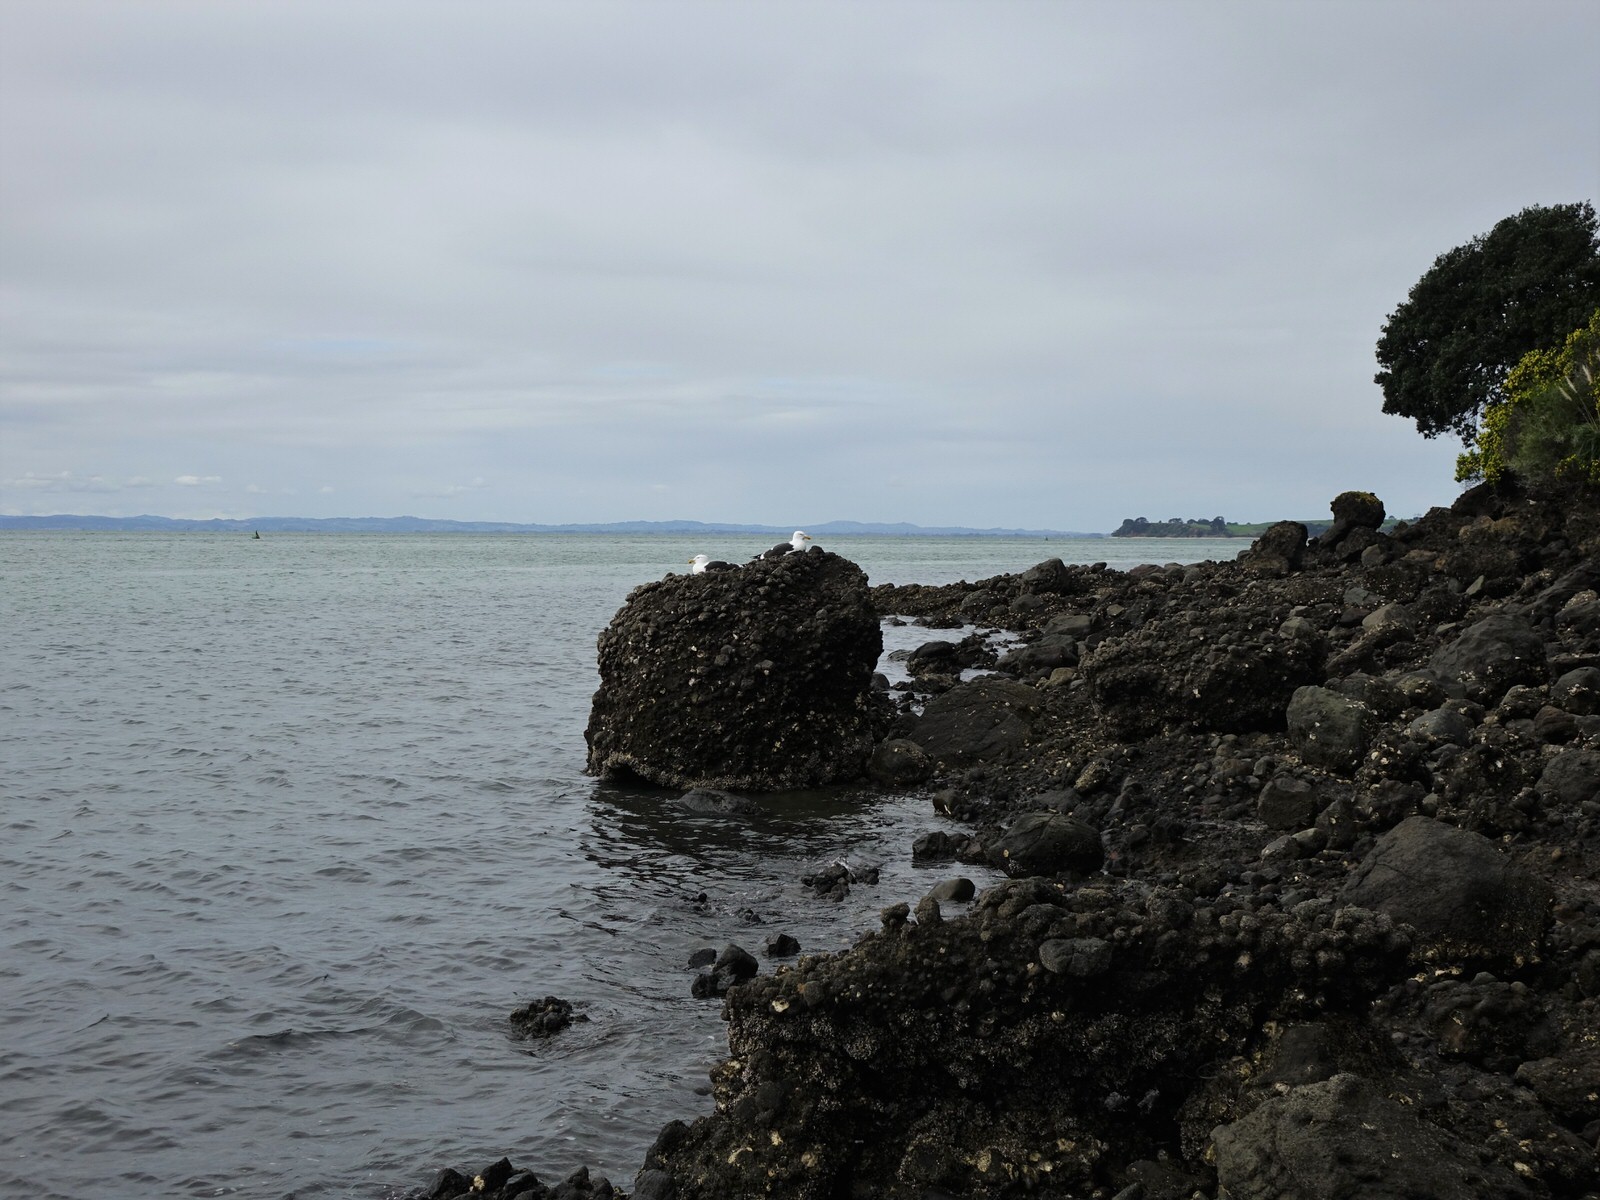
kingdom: Animalia
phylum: Chordata
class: Aves
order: Charadriiformes
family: Laridae
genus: Larus
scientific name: Larus dominicanus
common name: Kelp gull
